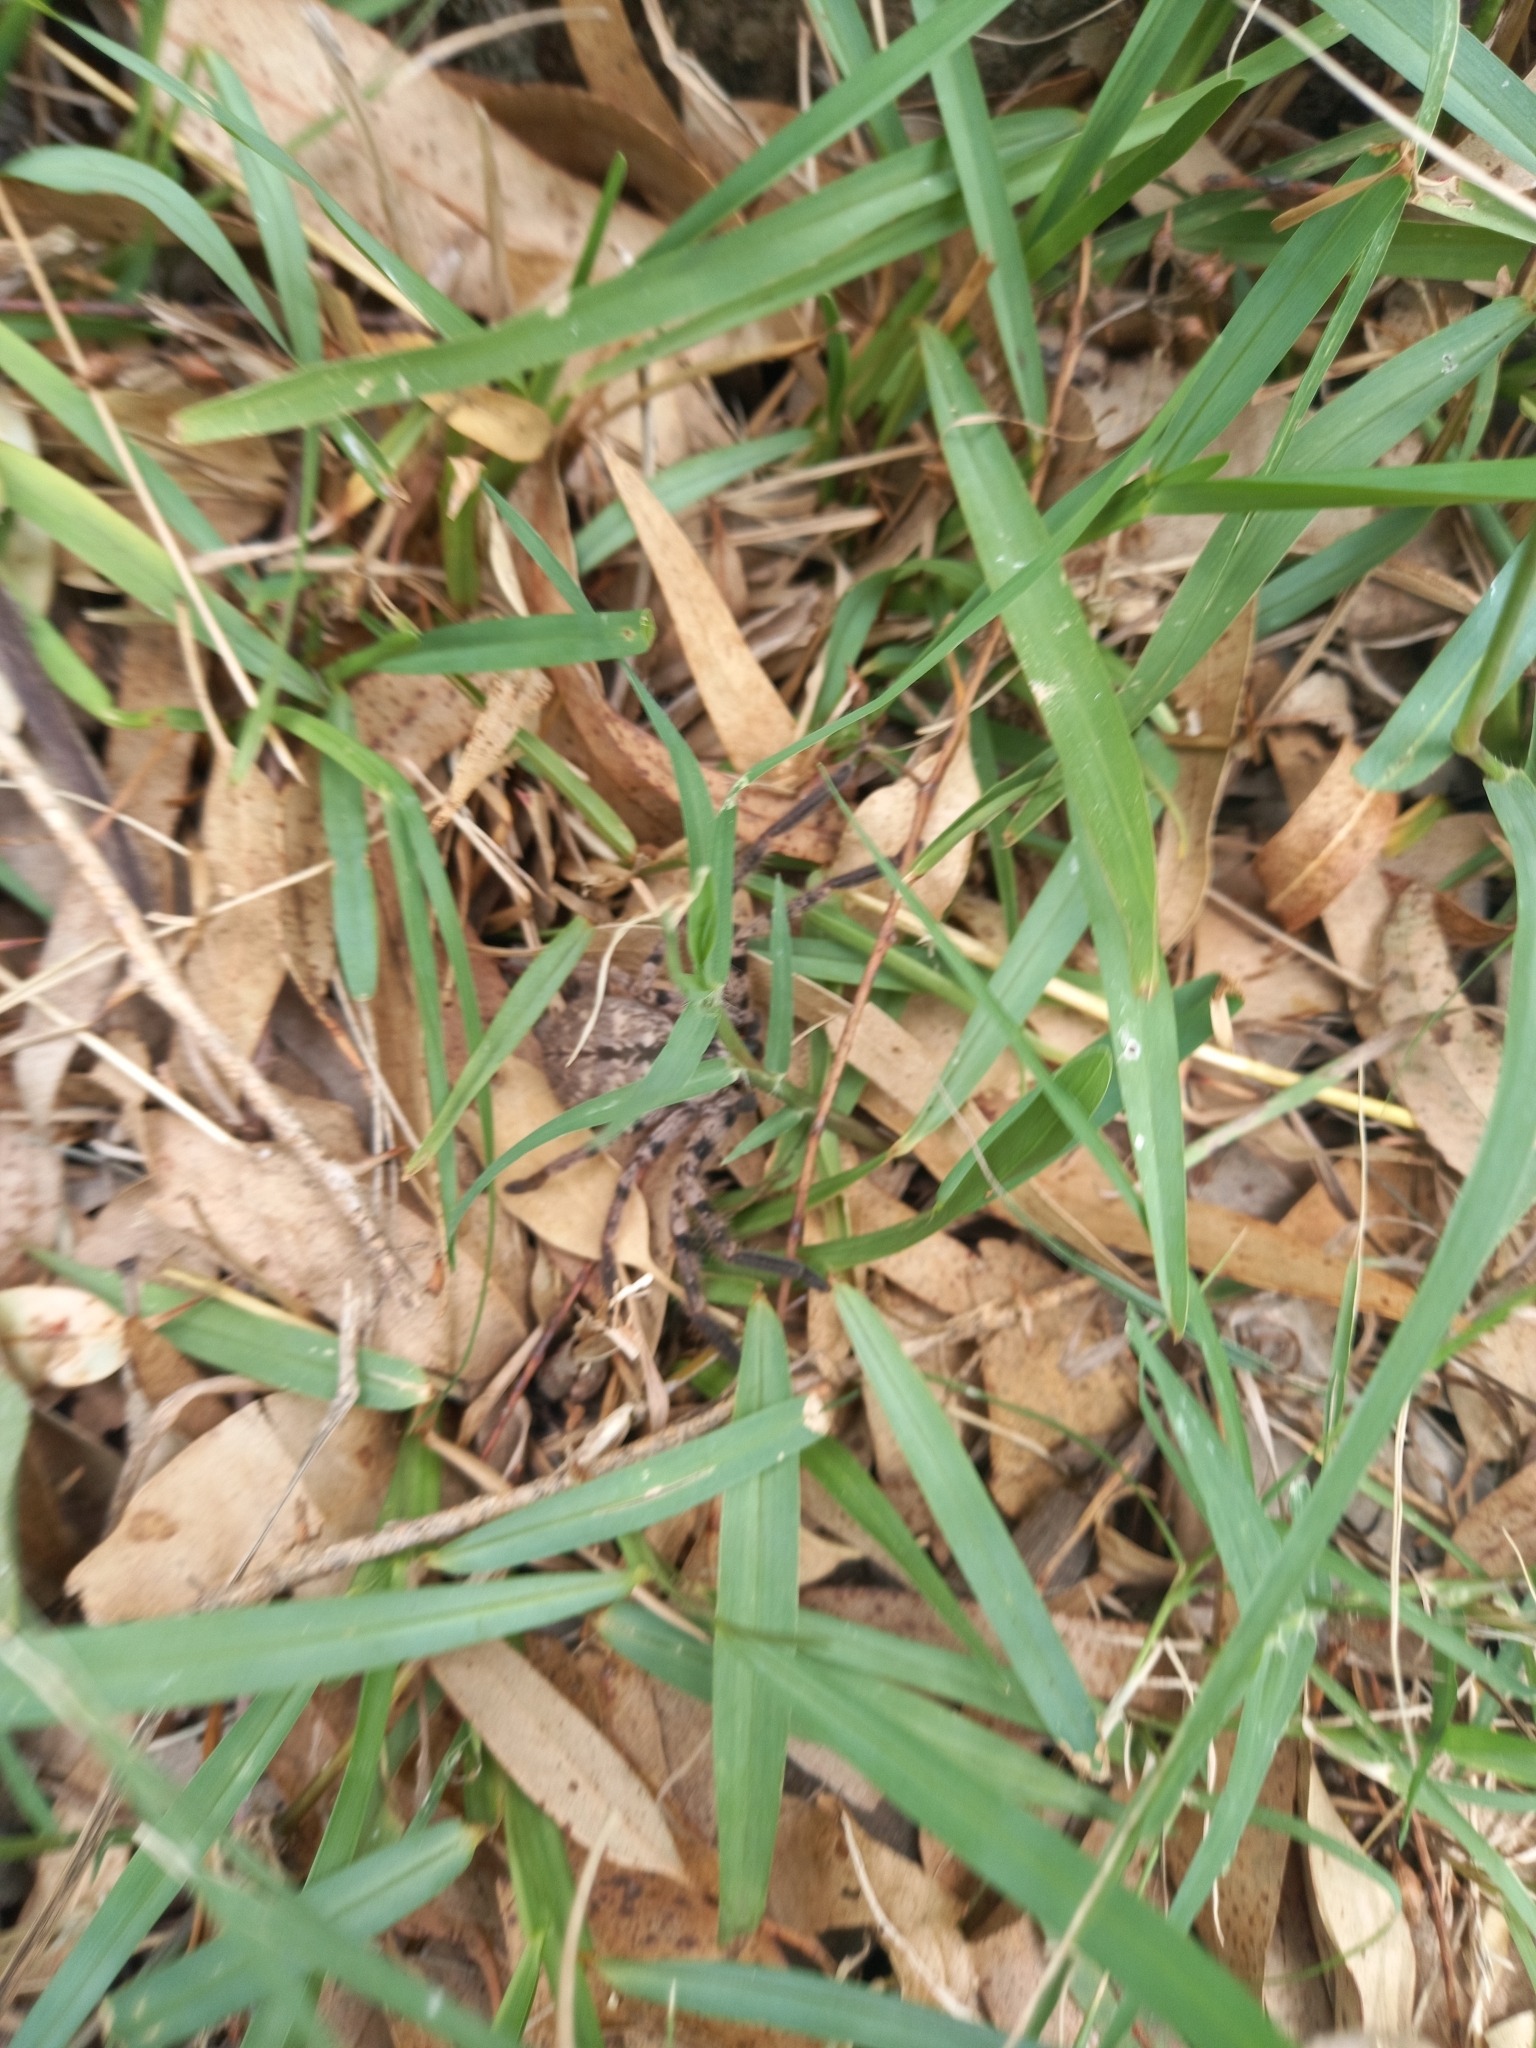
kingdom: Animalia
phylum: Arthropoda
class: Arachnida
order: Araneae
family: Sparassidae
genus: Polybetes
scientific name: Polybetes pythagoricus
